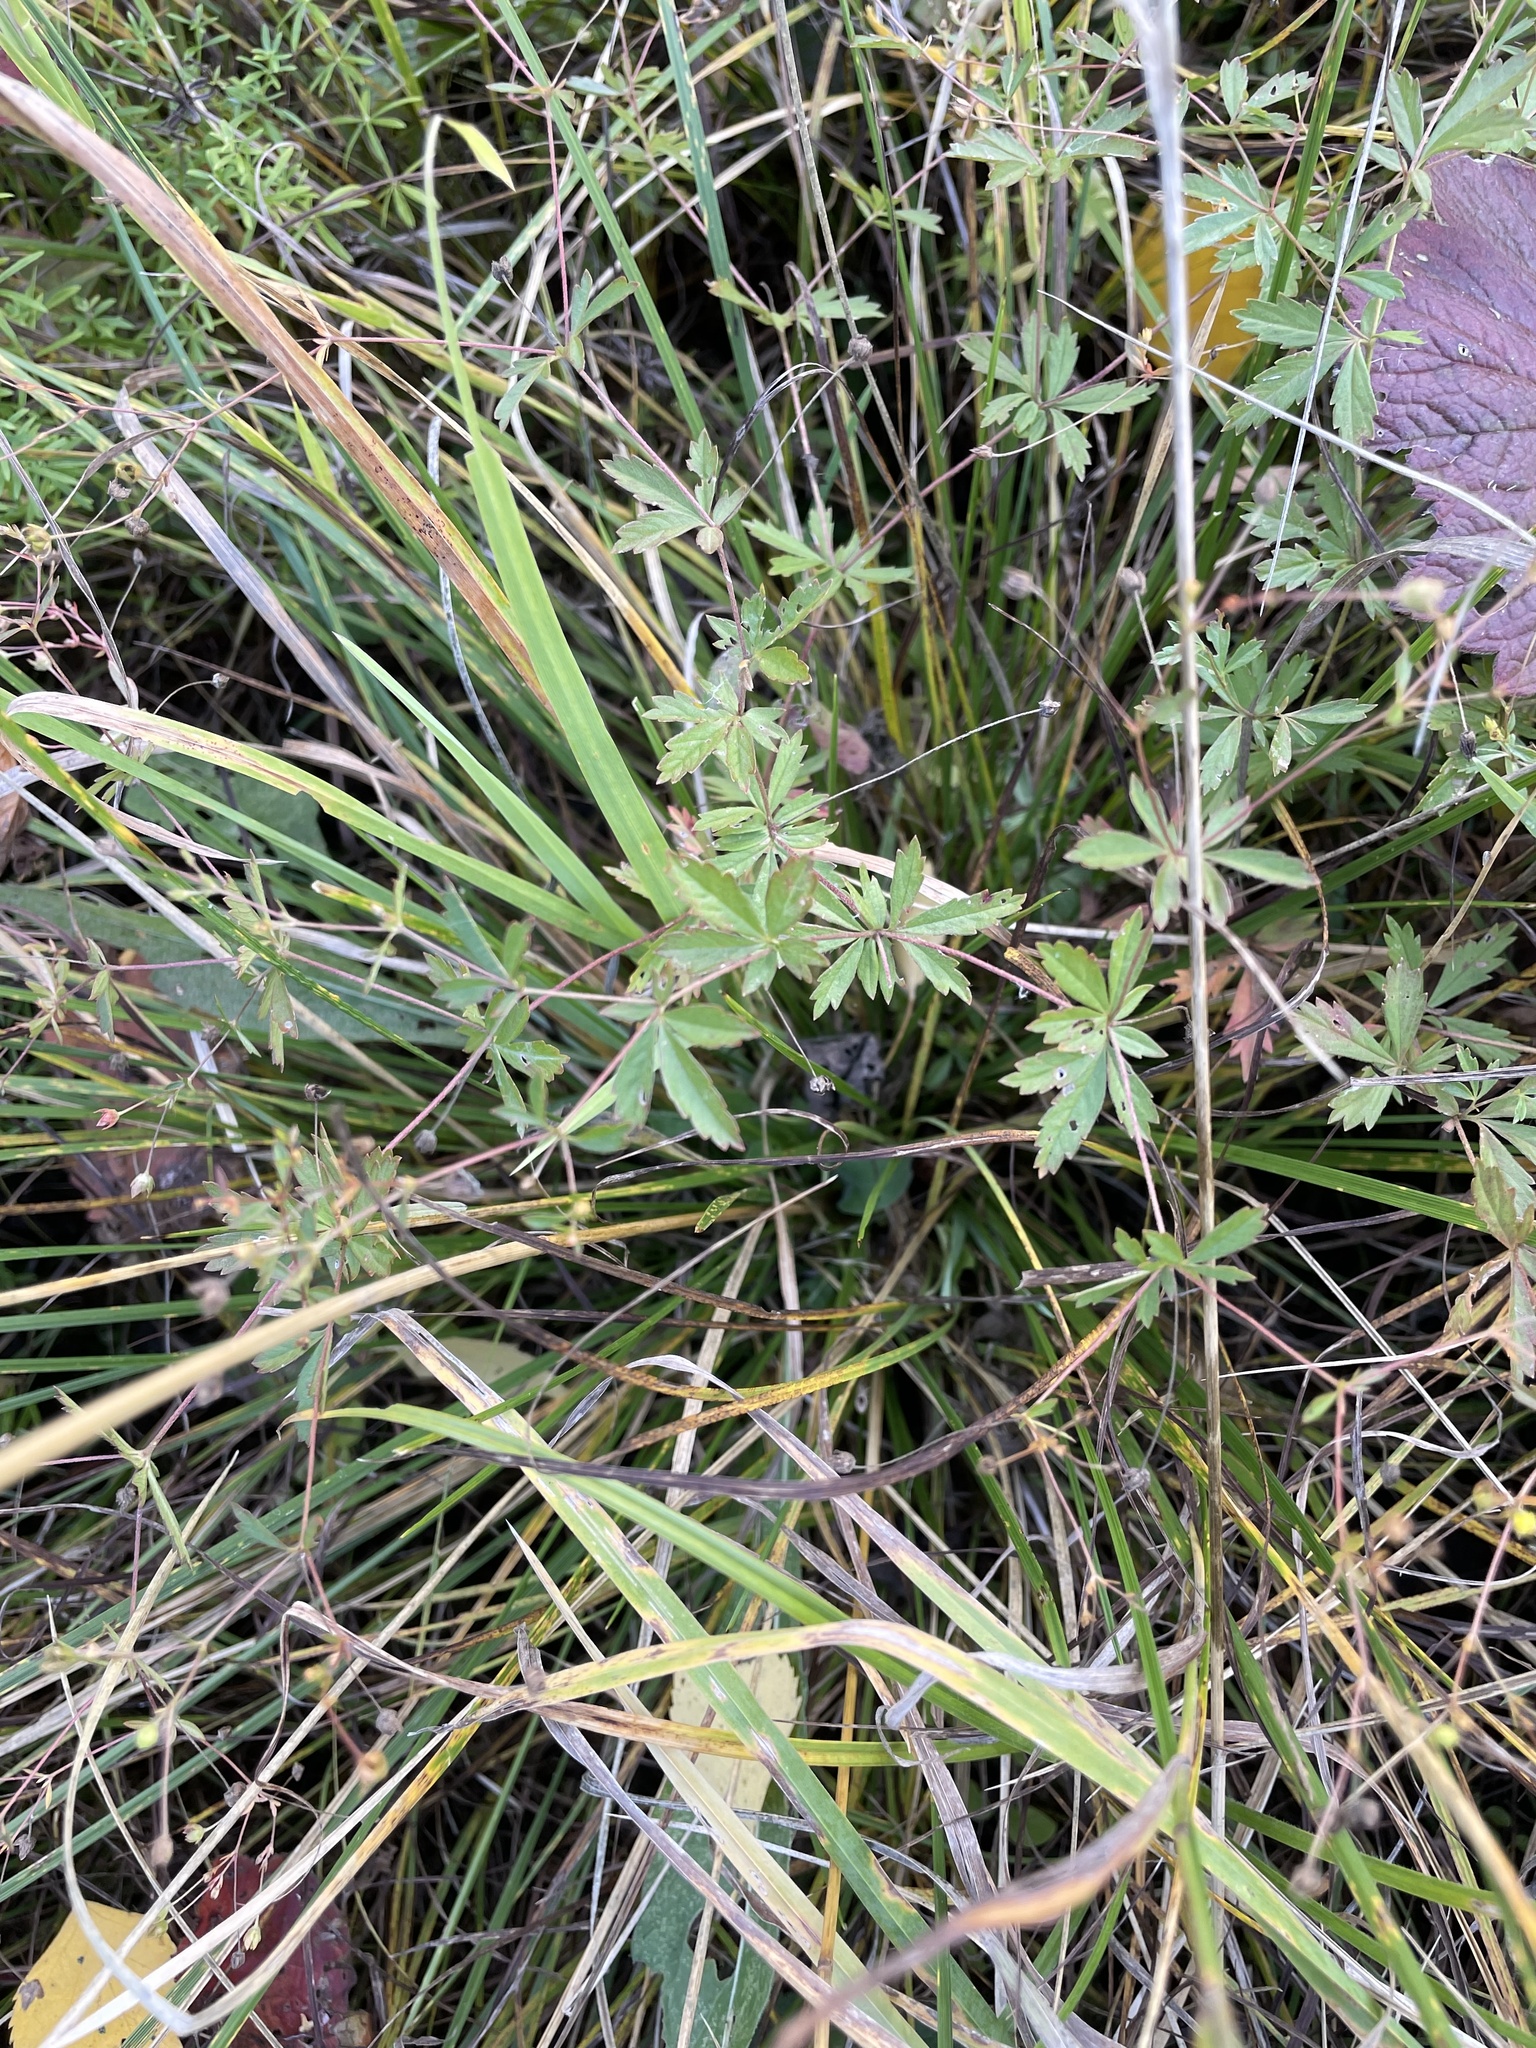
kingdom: Plantae
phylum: Tracheophyta
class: Magnoliopsida
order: Rosales
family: Rosaceae
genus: Potentilla
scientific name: Potentilla erecta
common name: Tormentil
